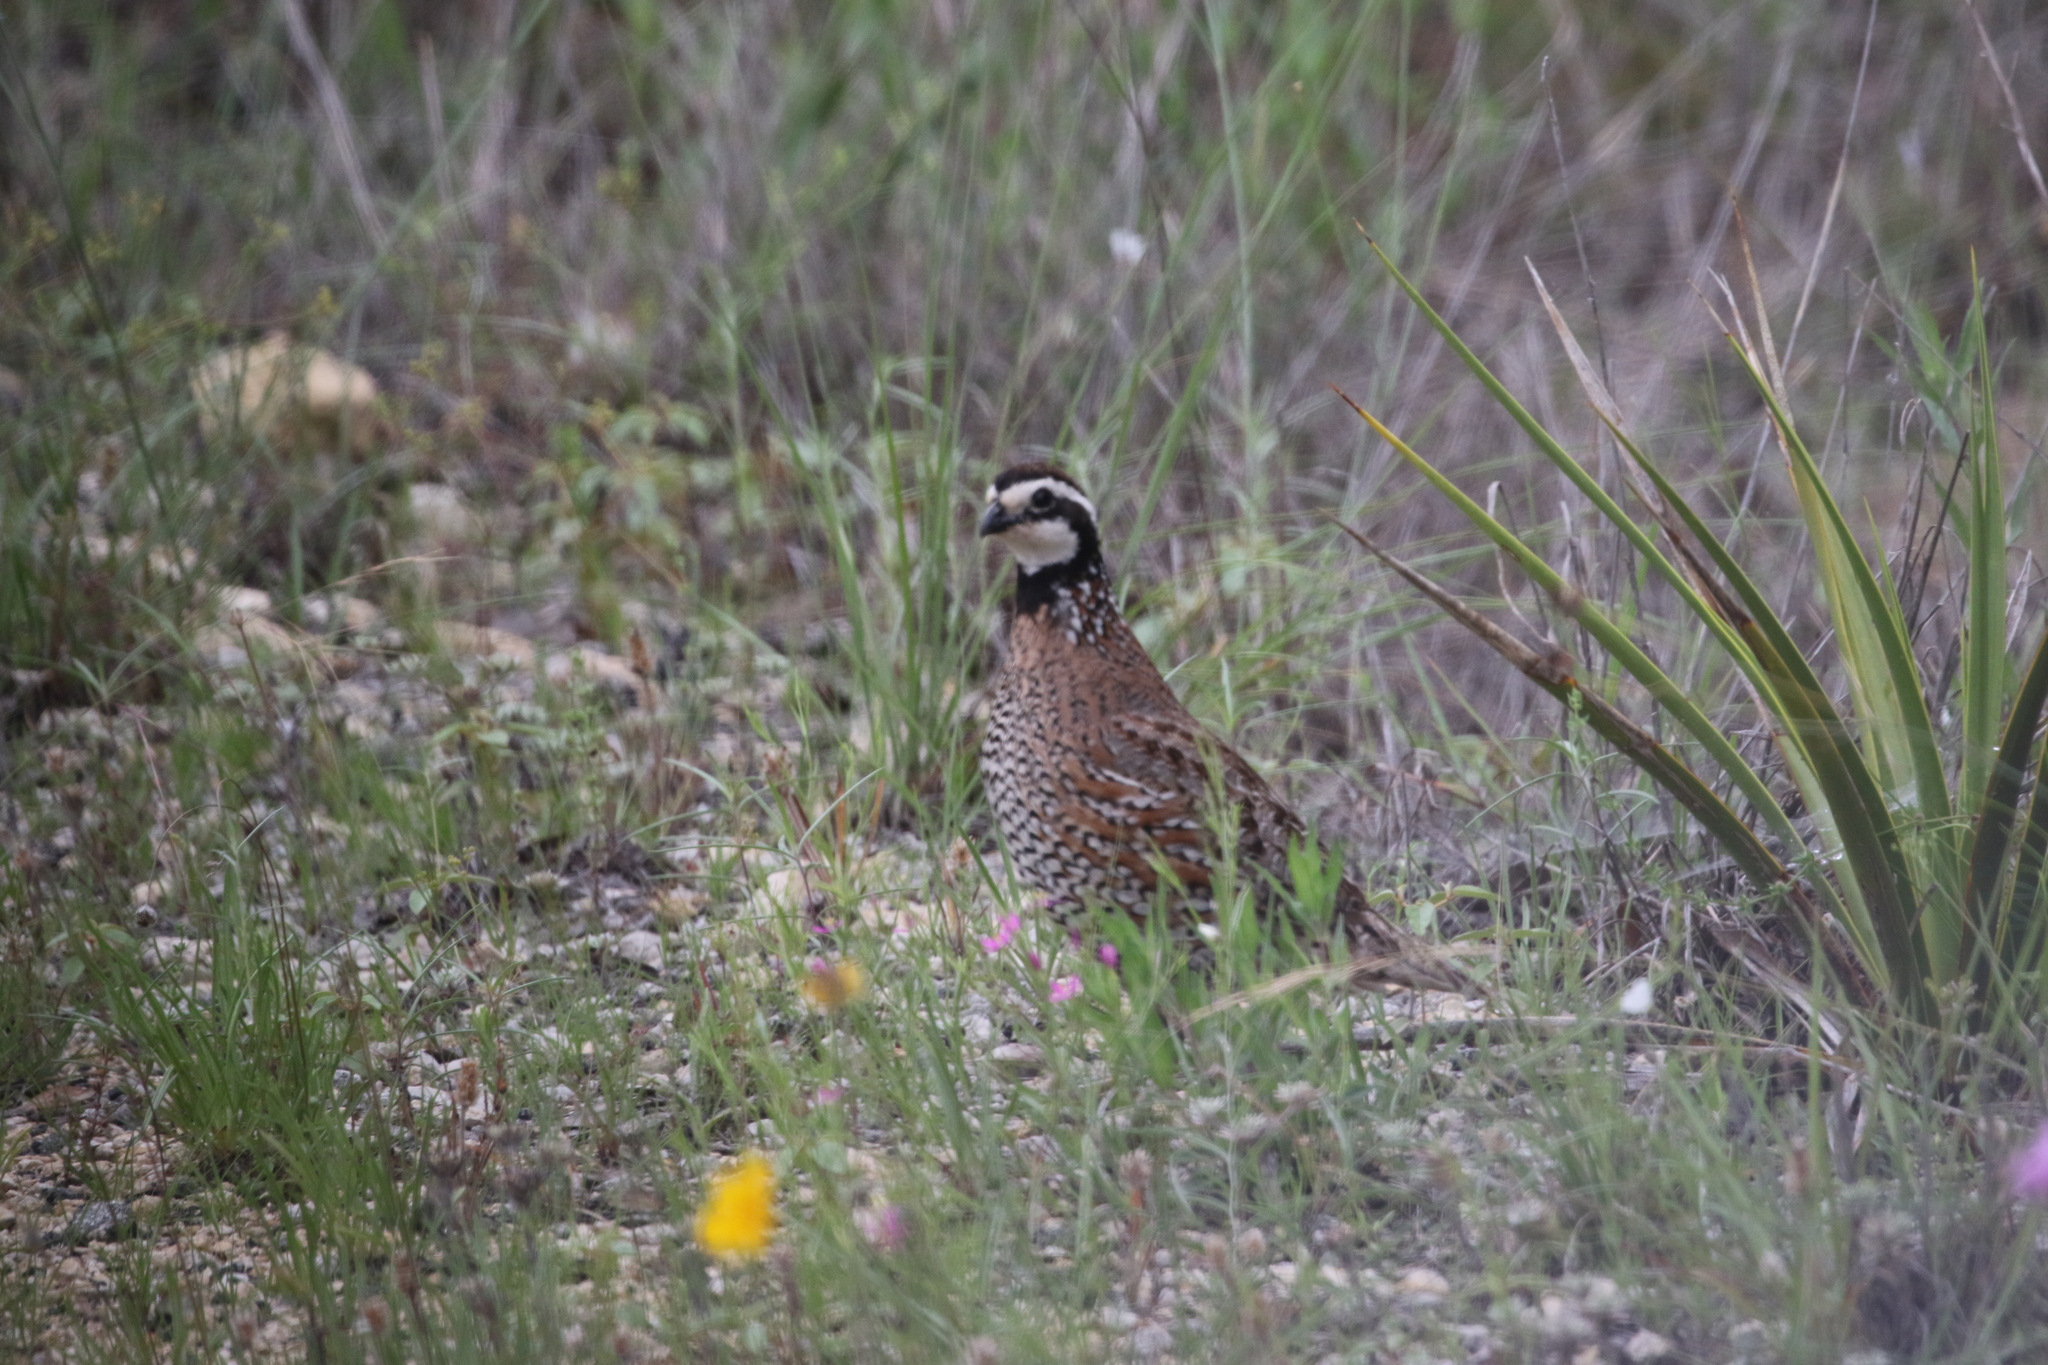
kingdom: Animalia
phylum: Chordata
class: Aves
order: Galliformes
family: Odontophoridae
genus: Colinus
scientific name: Colinus virginianus
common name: Northern bobwhite
